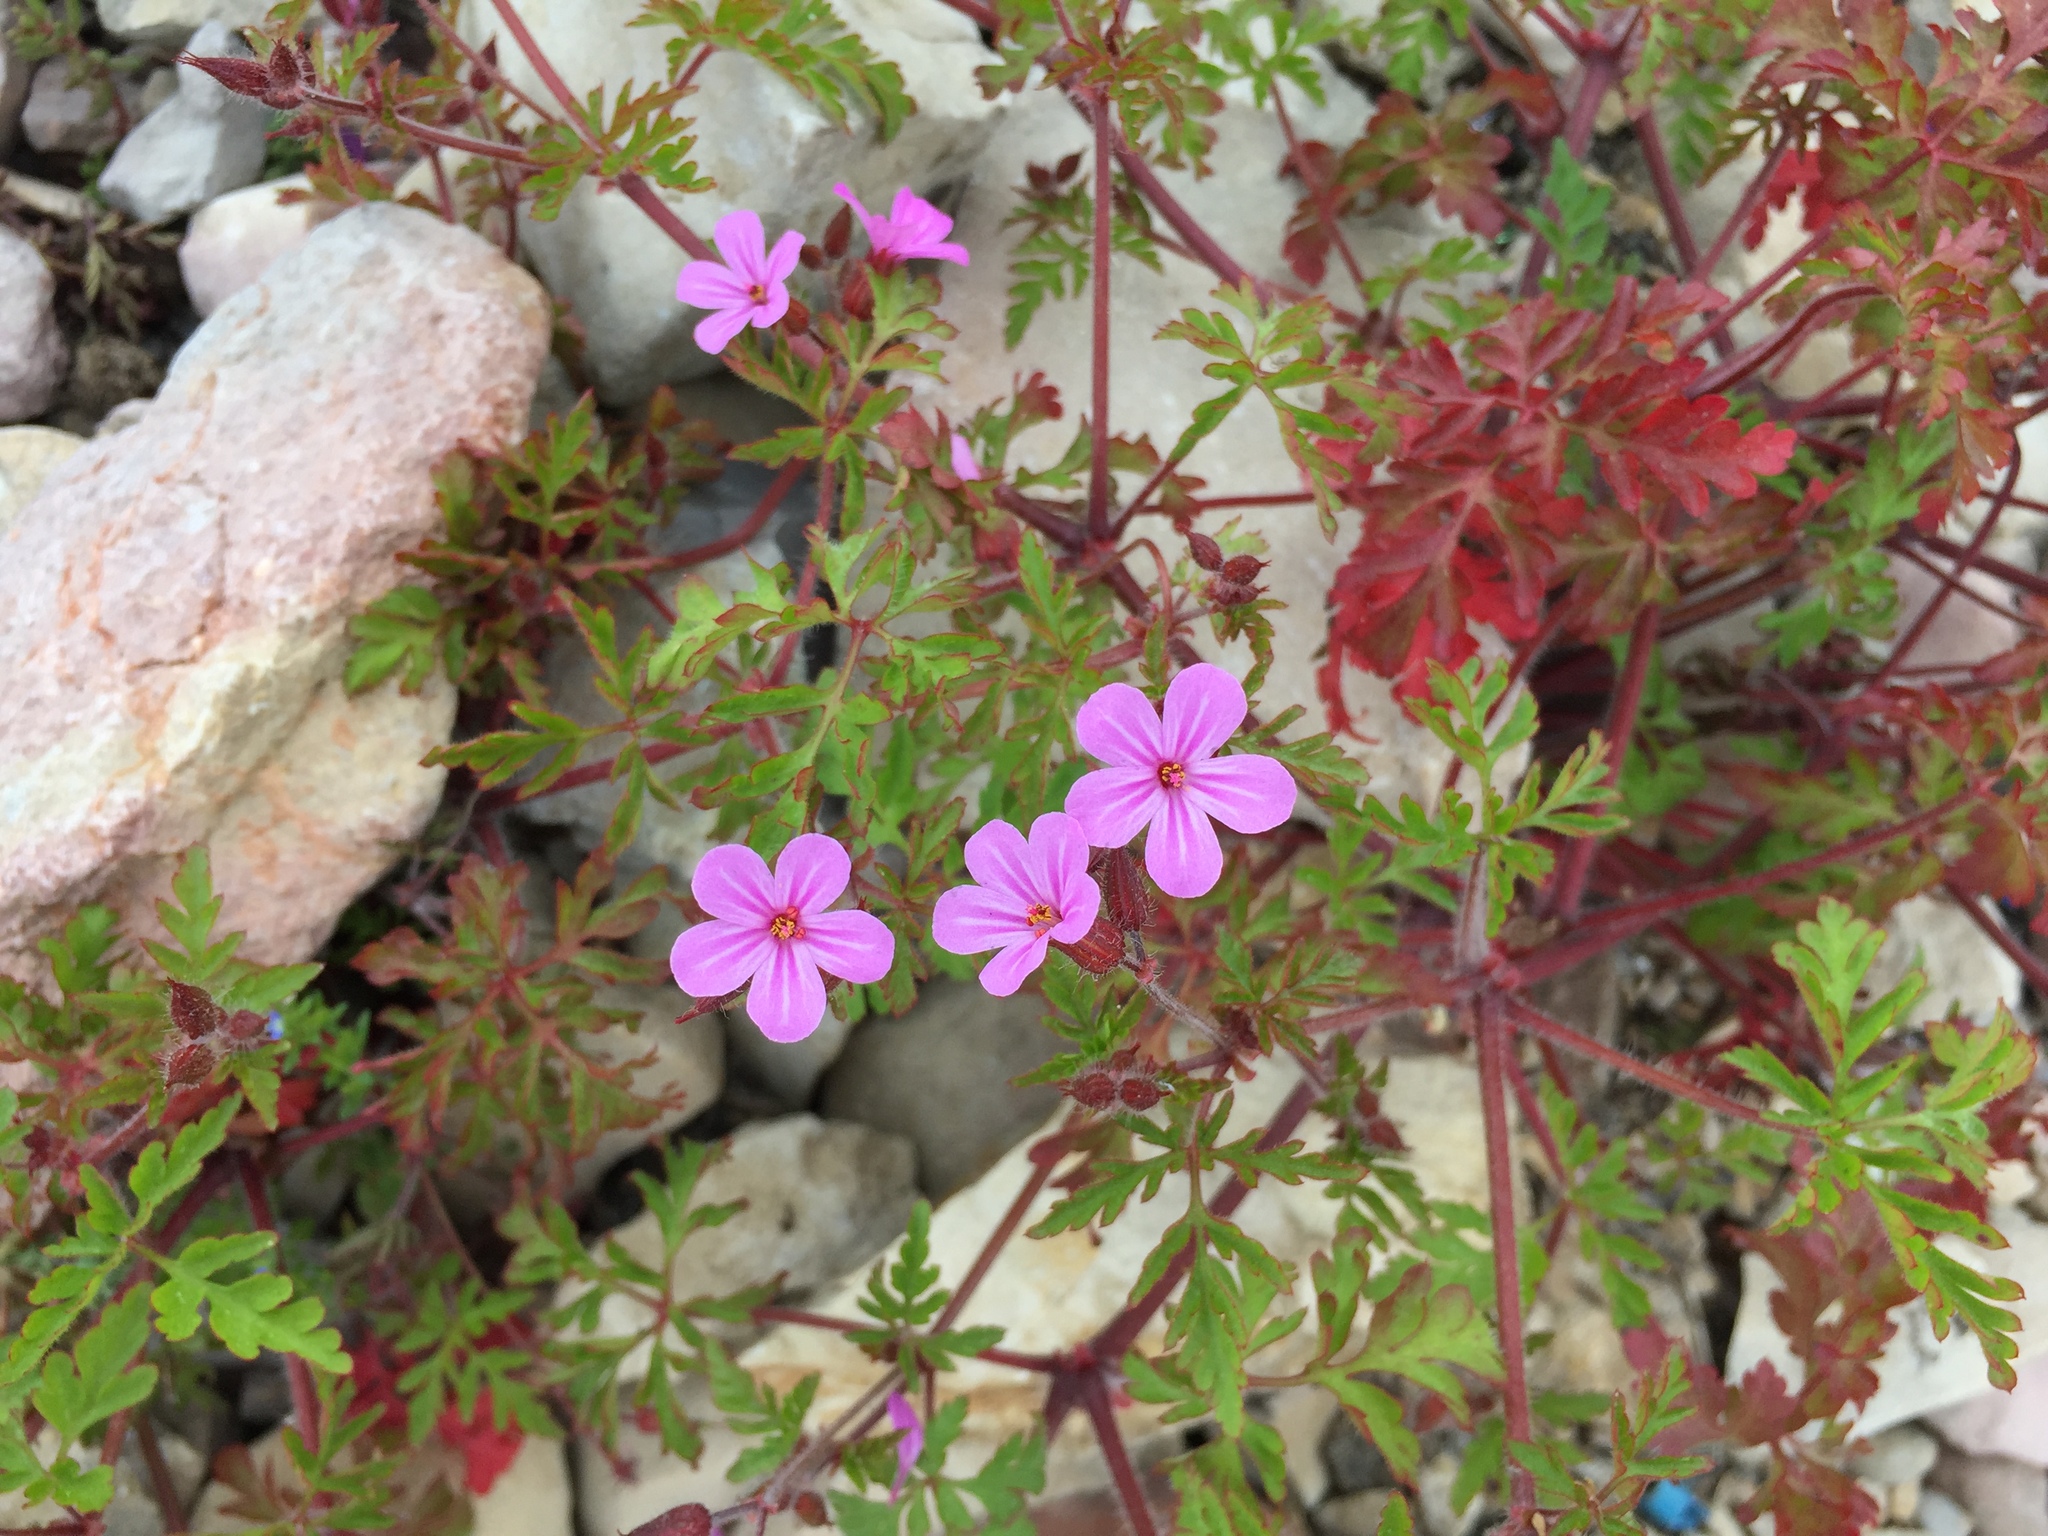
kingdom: Plantae
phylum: Tracheophyta
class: Magnoliopsida
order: Geraniales
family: Geraniaceae
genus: Geranium
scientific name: Geranium robertianum
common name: Herb-robert
